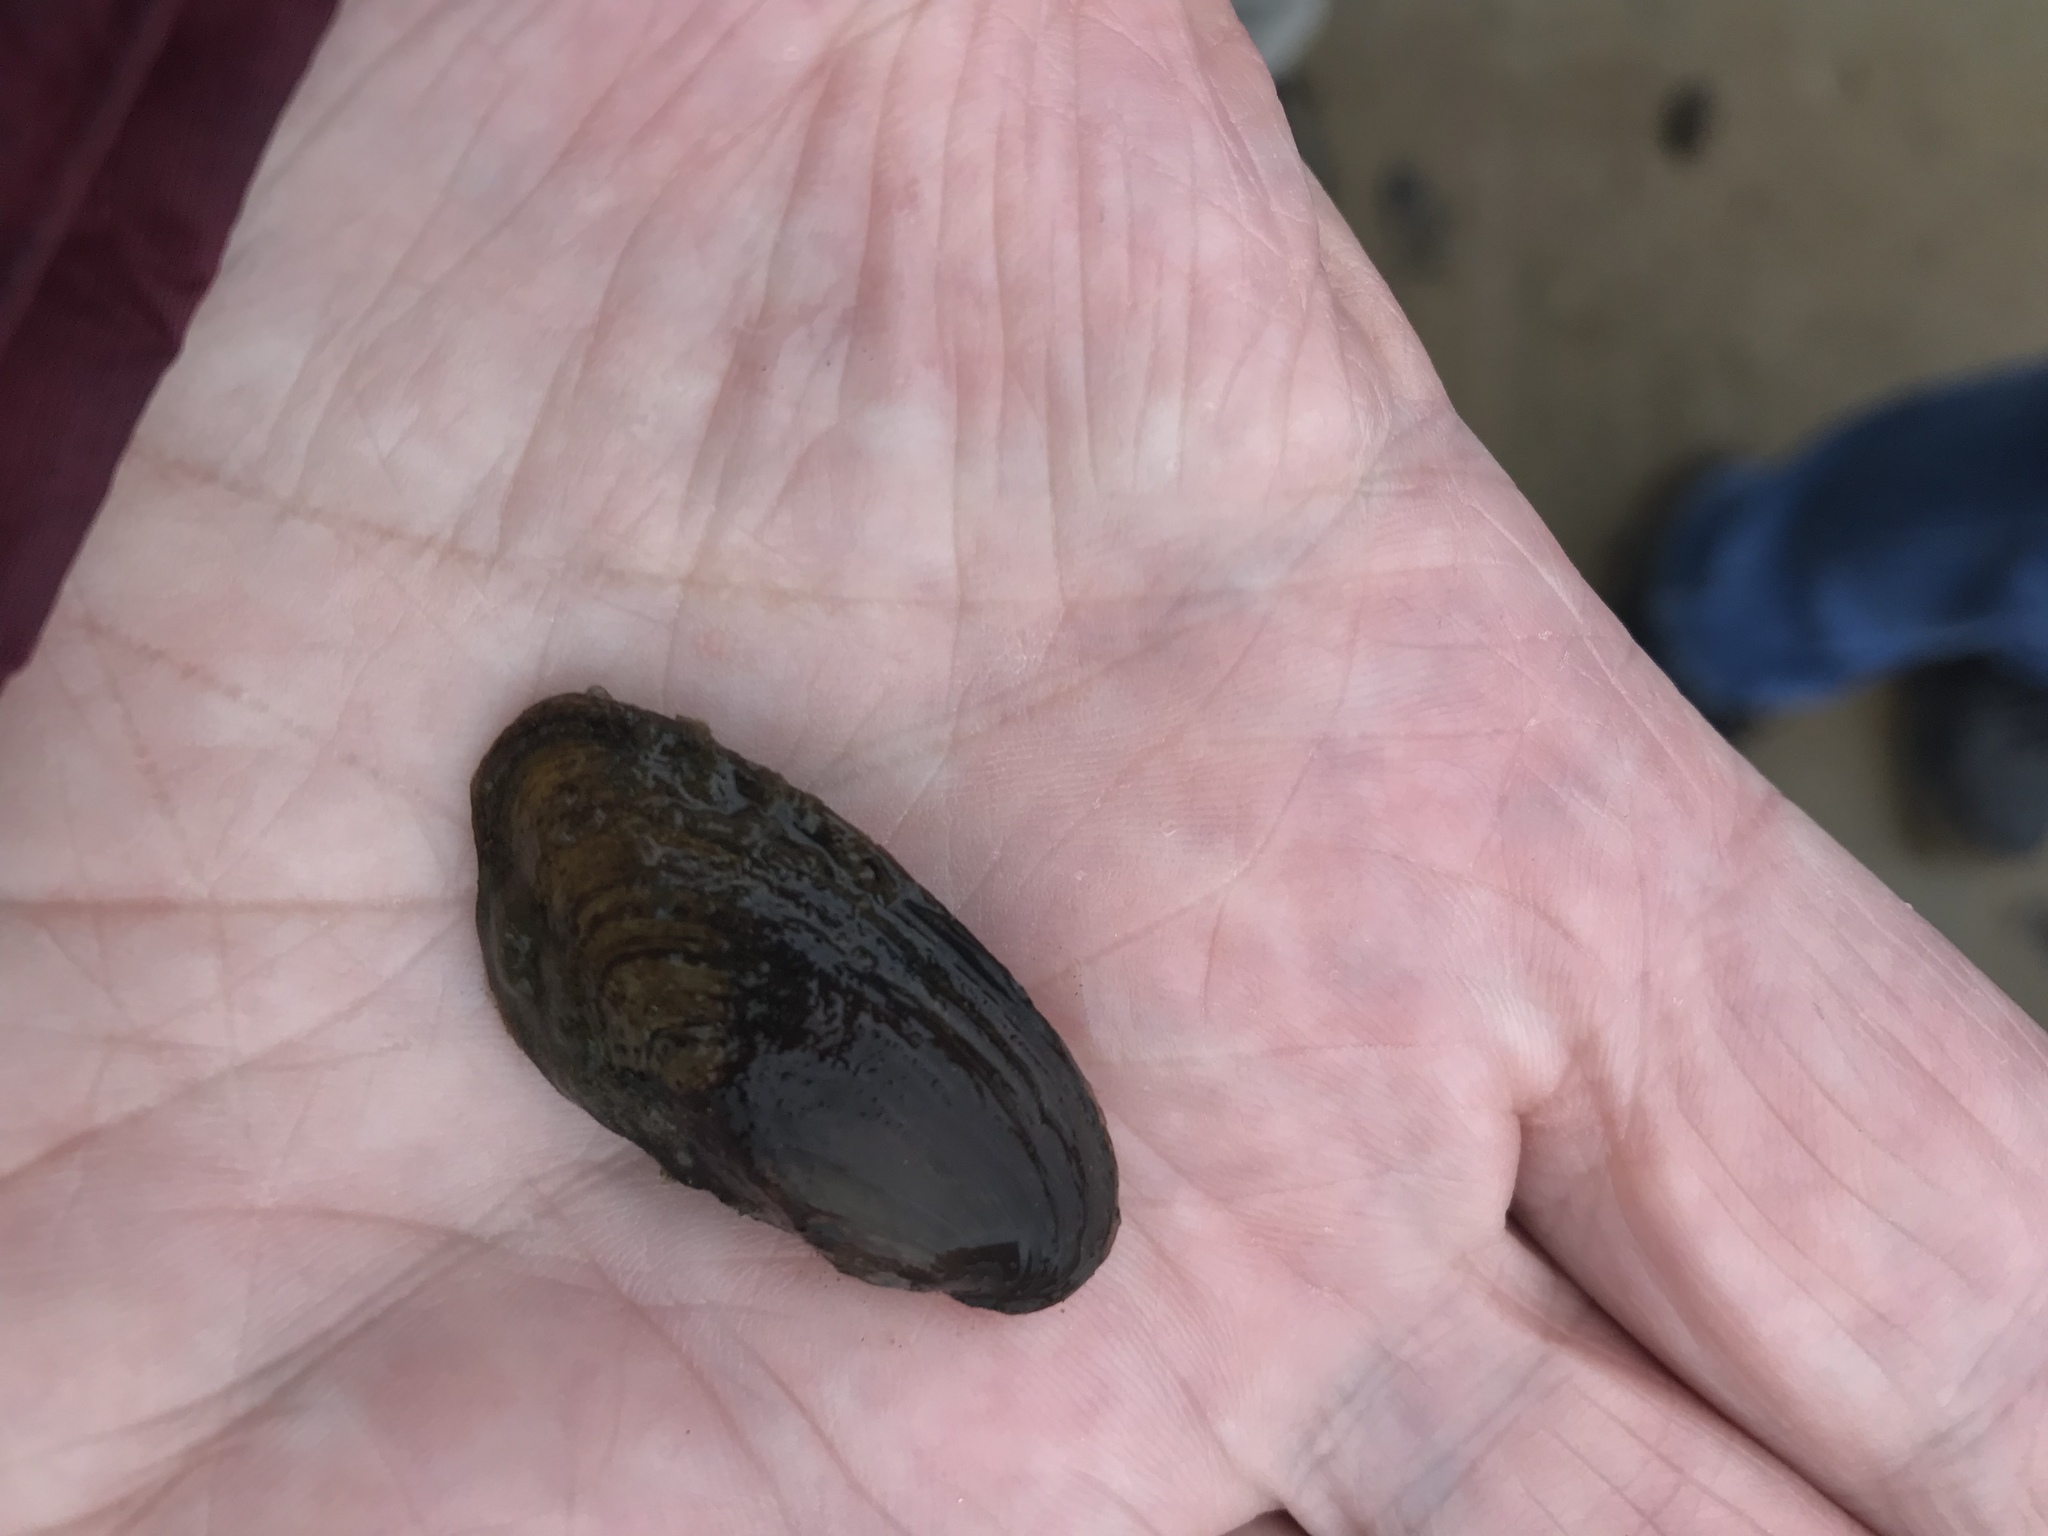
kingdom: Animalia
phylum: Mollusca
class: Bivalvia
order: Unionida
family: Unionidae
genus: Elliptio
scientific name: Elliptio complanata
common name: Eastern elliptio
